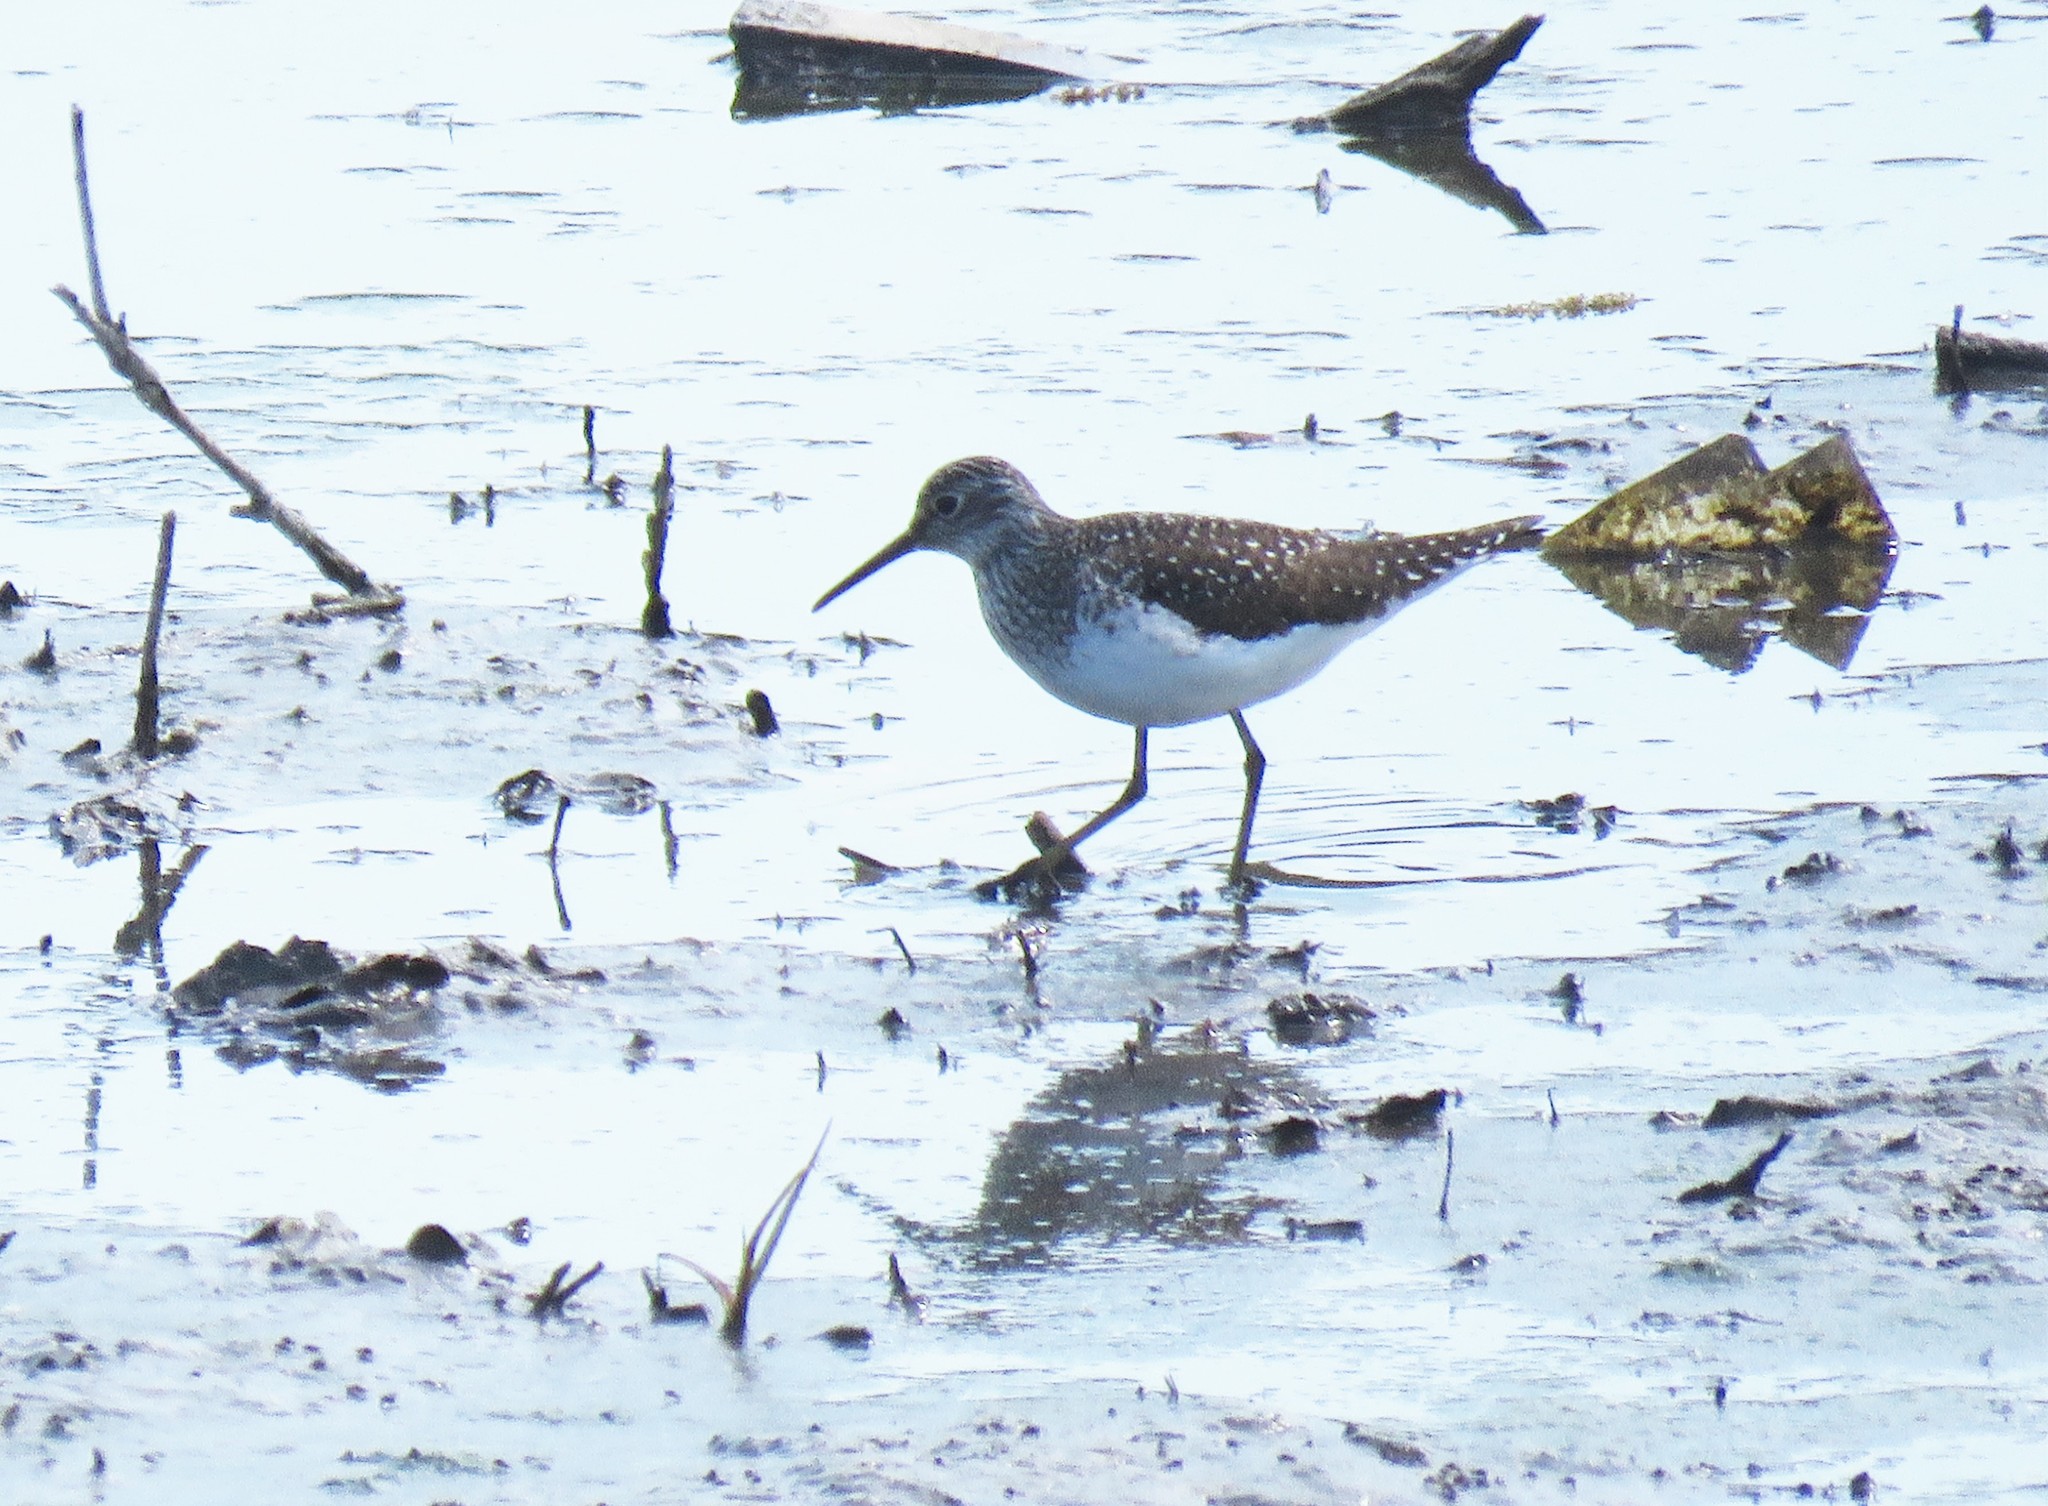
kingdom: Animalia
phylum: Chordata
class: Aves
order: Charadriiformes
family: Scolopacidae
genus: Tringa
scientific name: Tringa solitaria
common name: Solitary sandpiper
